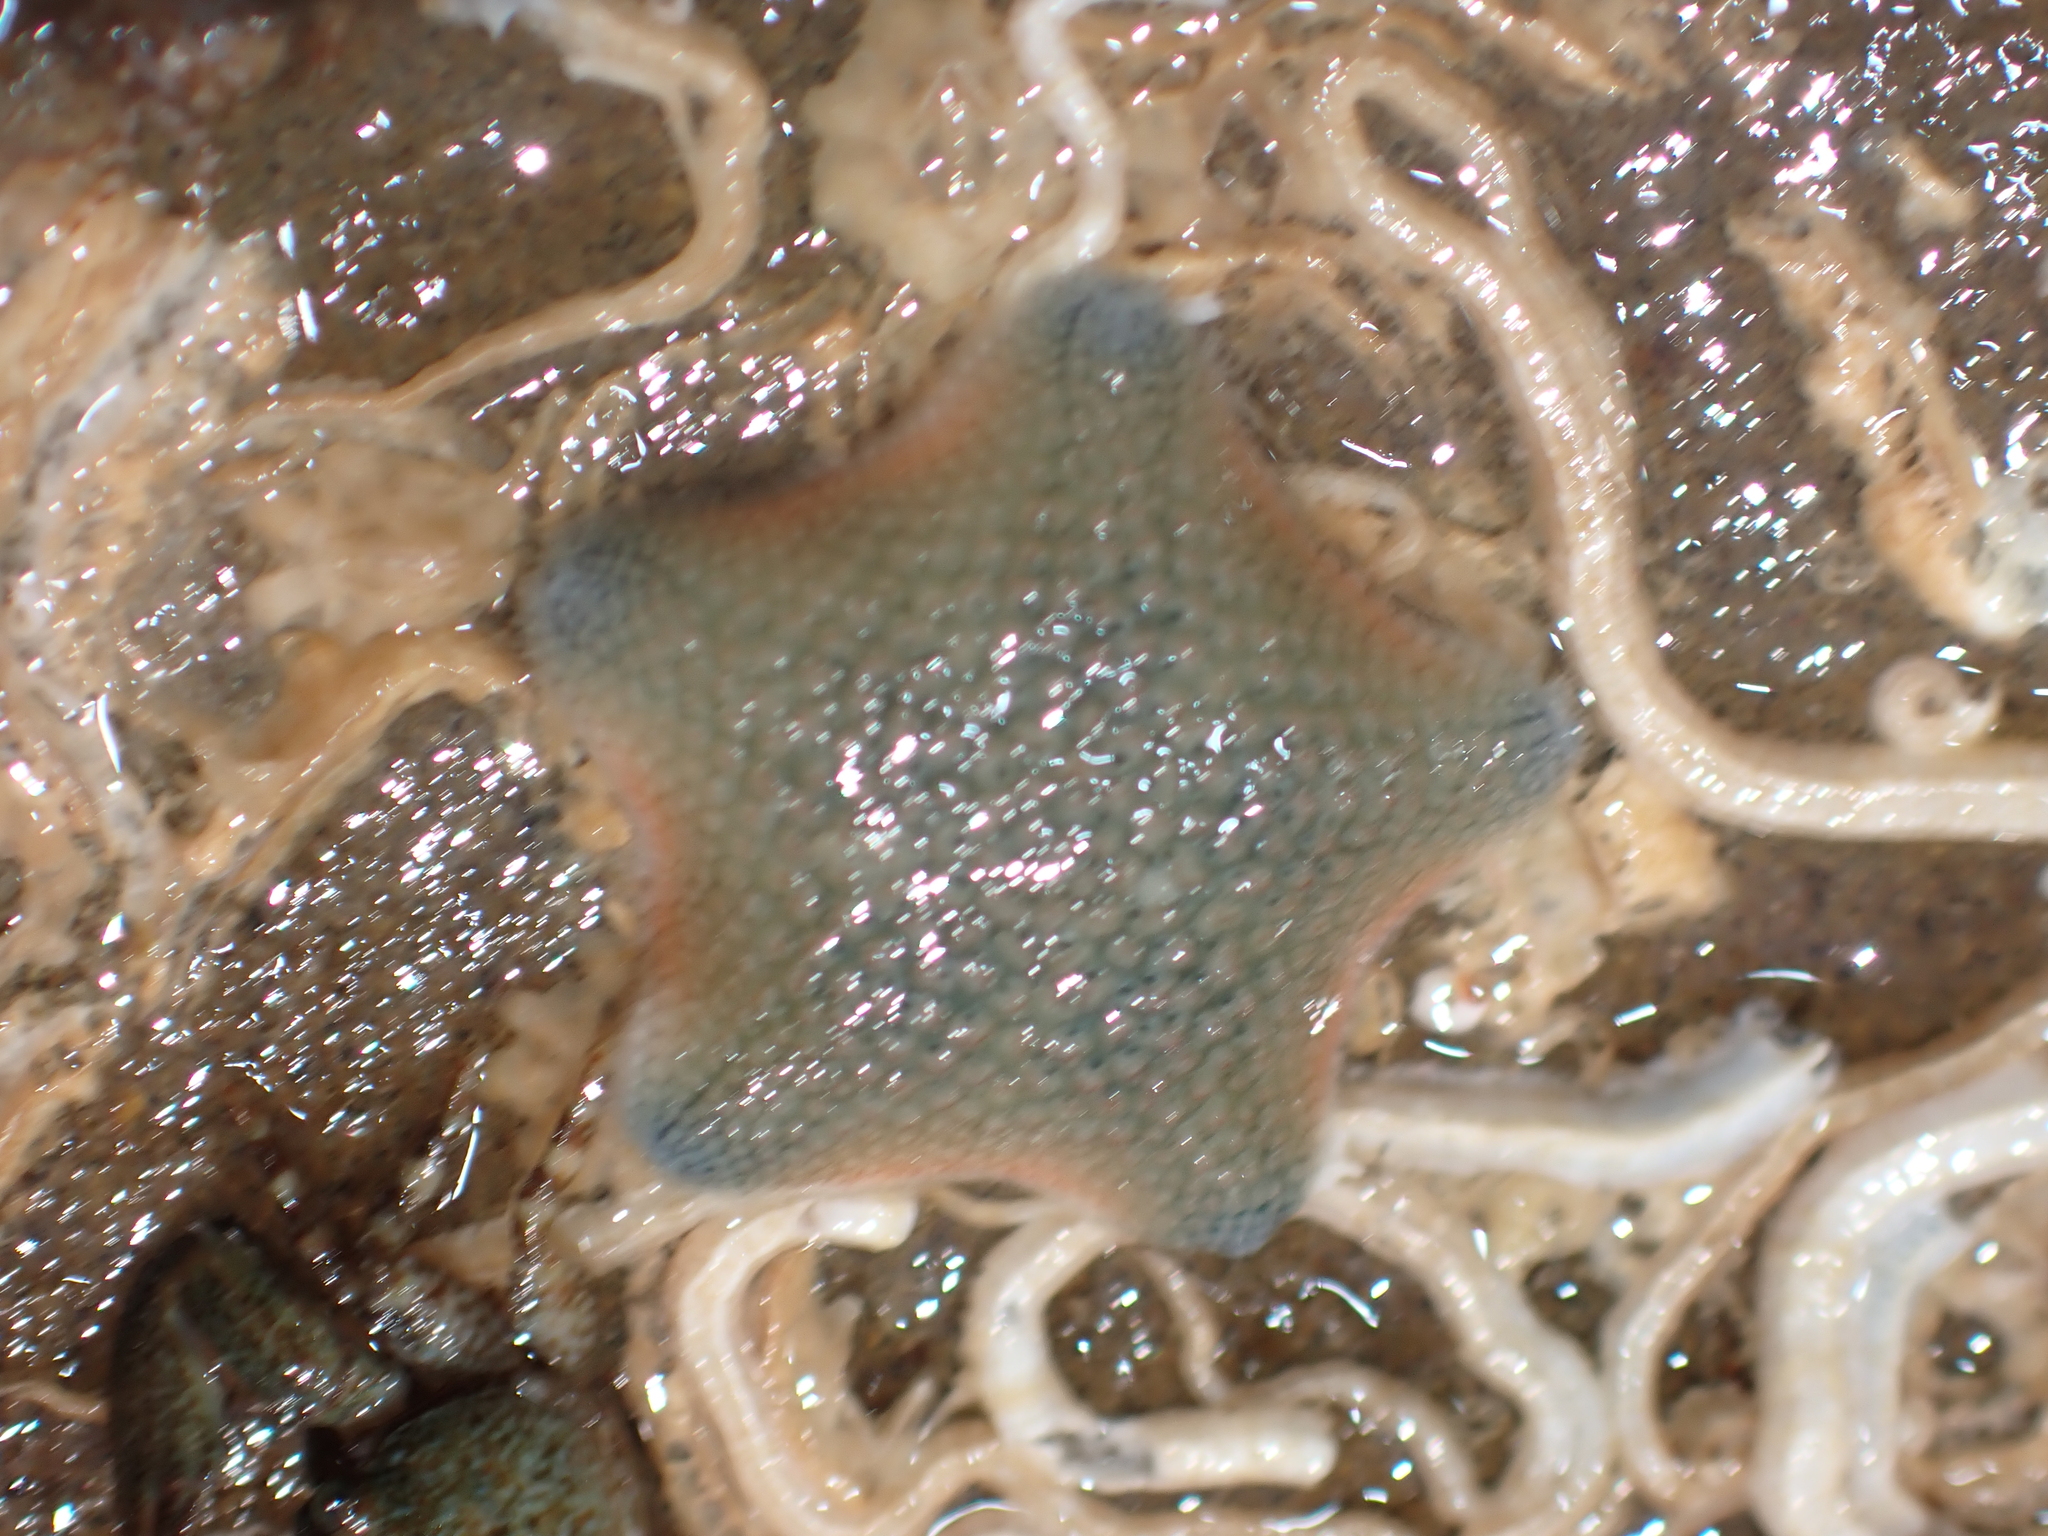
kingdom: Animalia
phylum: Echinodermata
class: Asteroidea
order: Valvatida
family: Asterinidae
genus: Patiriella
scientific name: Patiriella regularis
